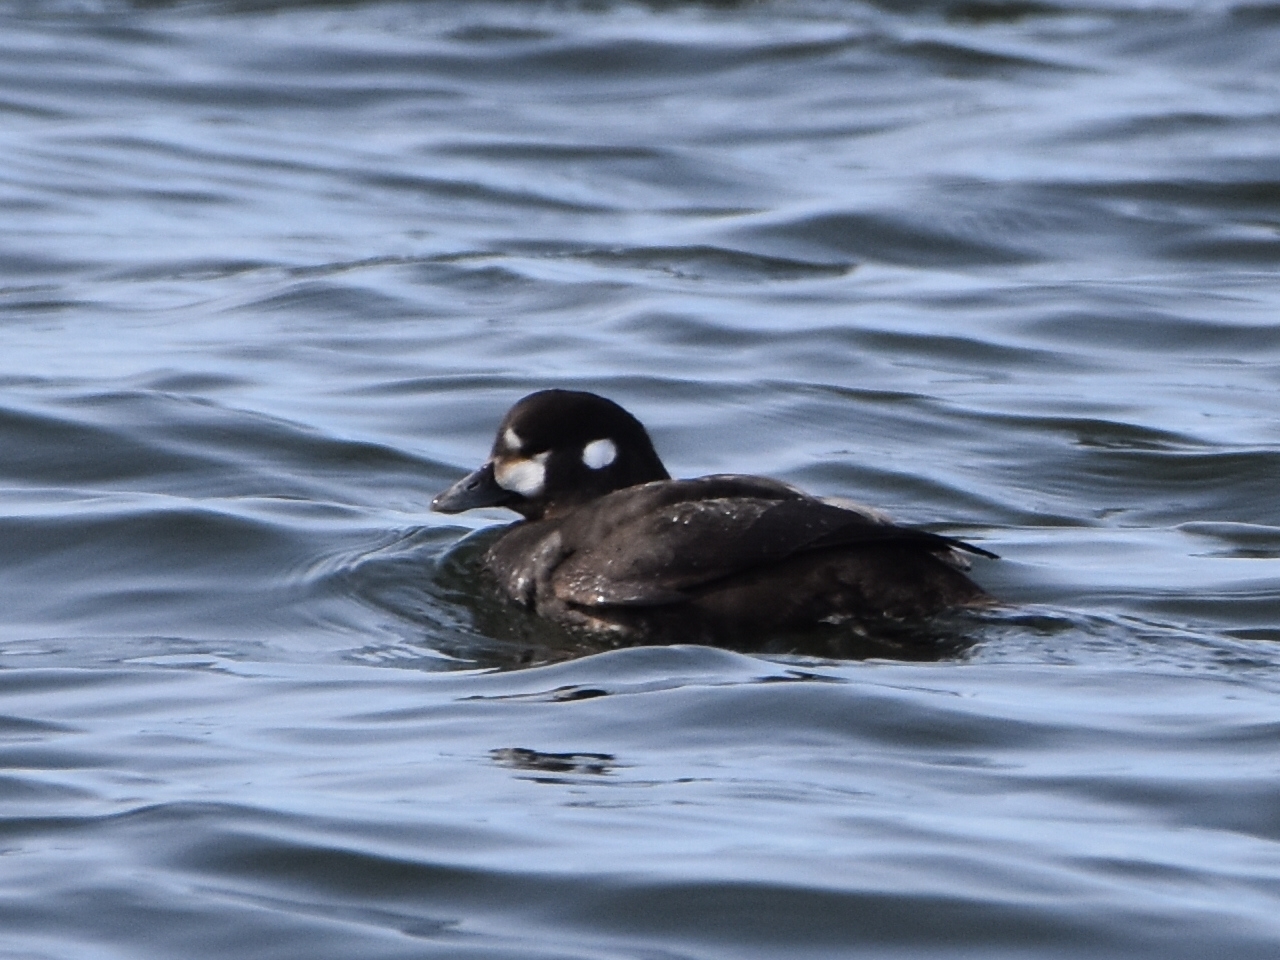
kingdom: Animalia
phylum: Chordata
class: Aves
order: Anseriformes
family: Anatidae
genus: Histrionicus
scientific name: Histrionicus histrionicus
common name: Harlequin duck
